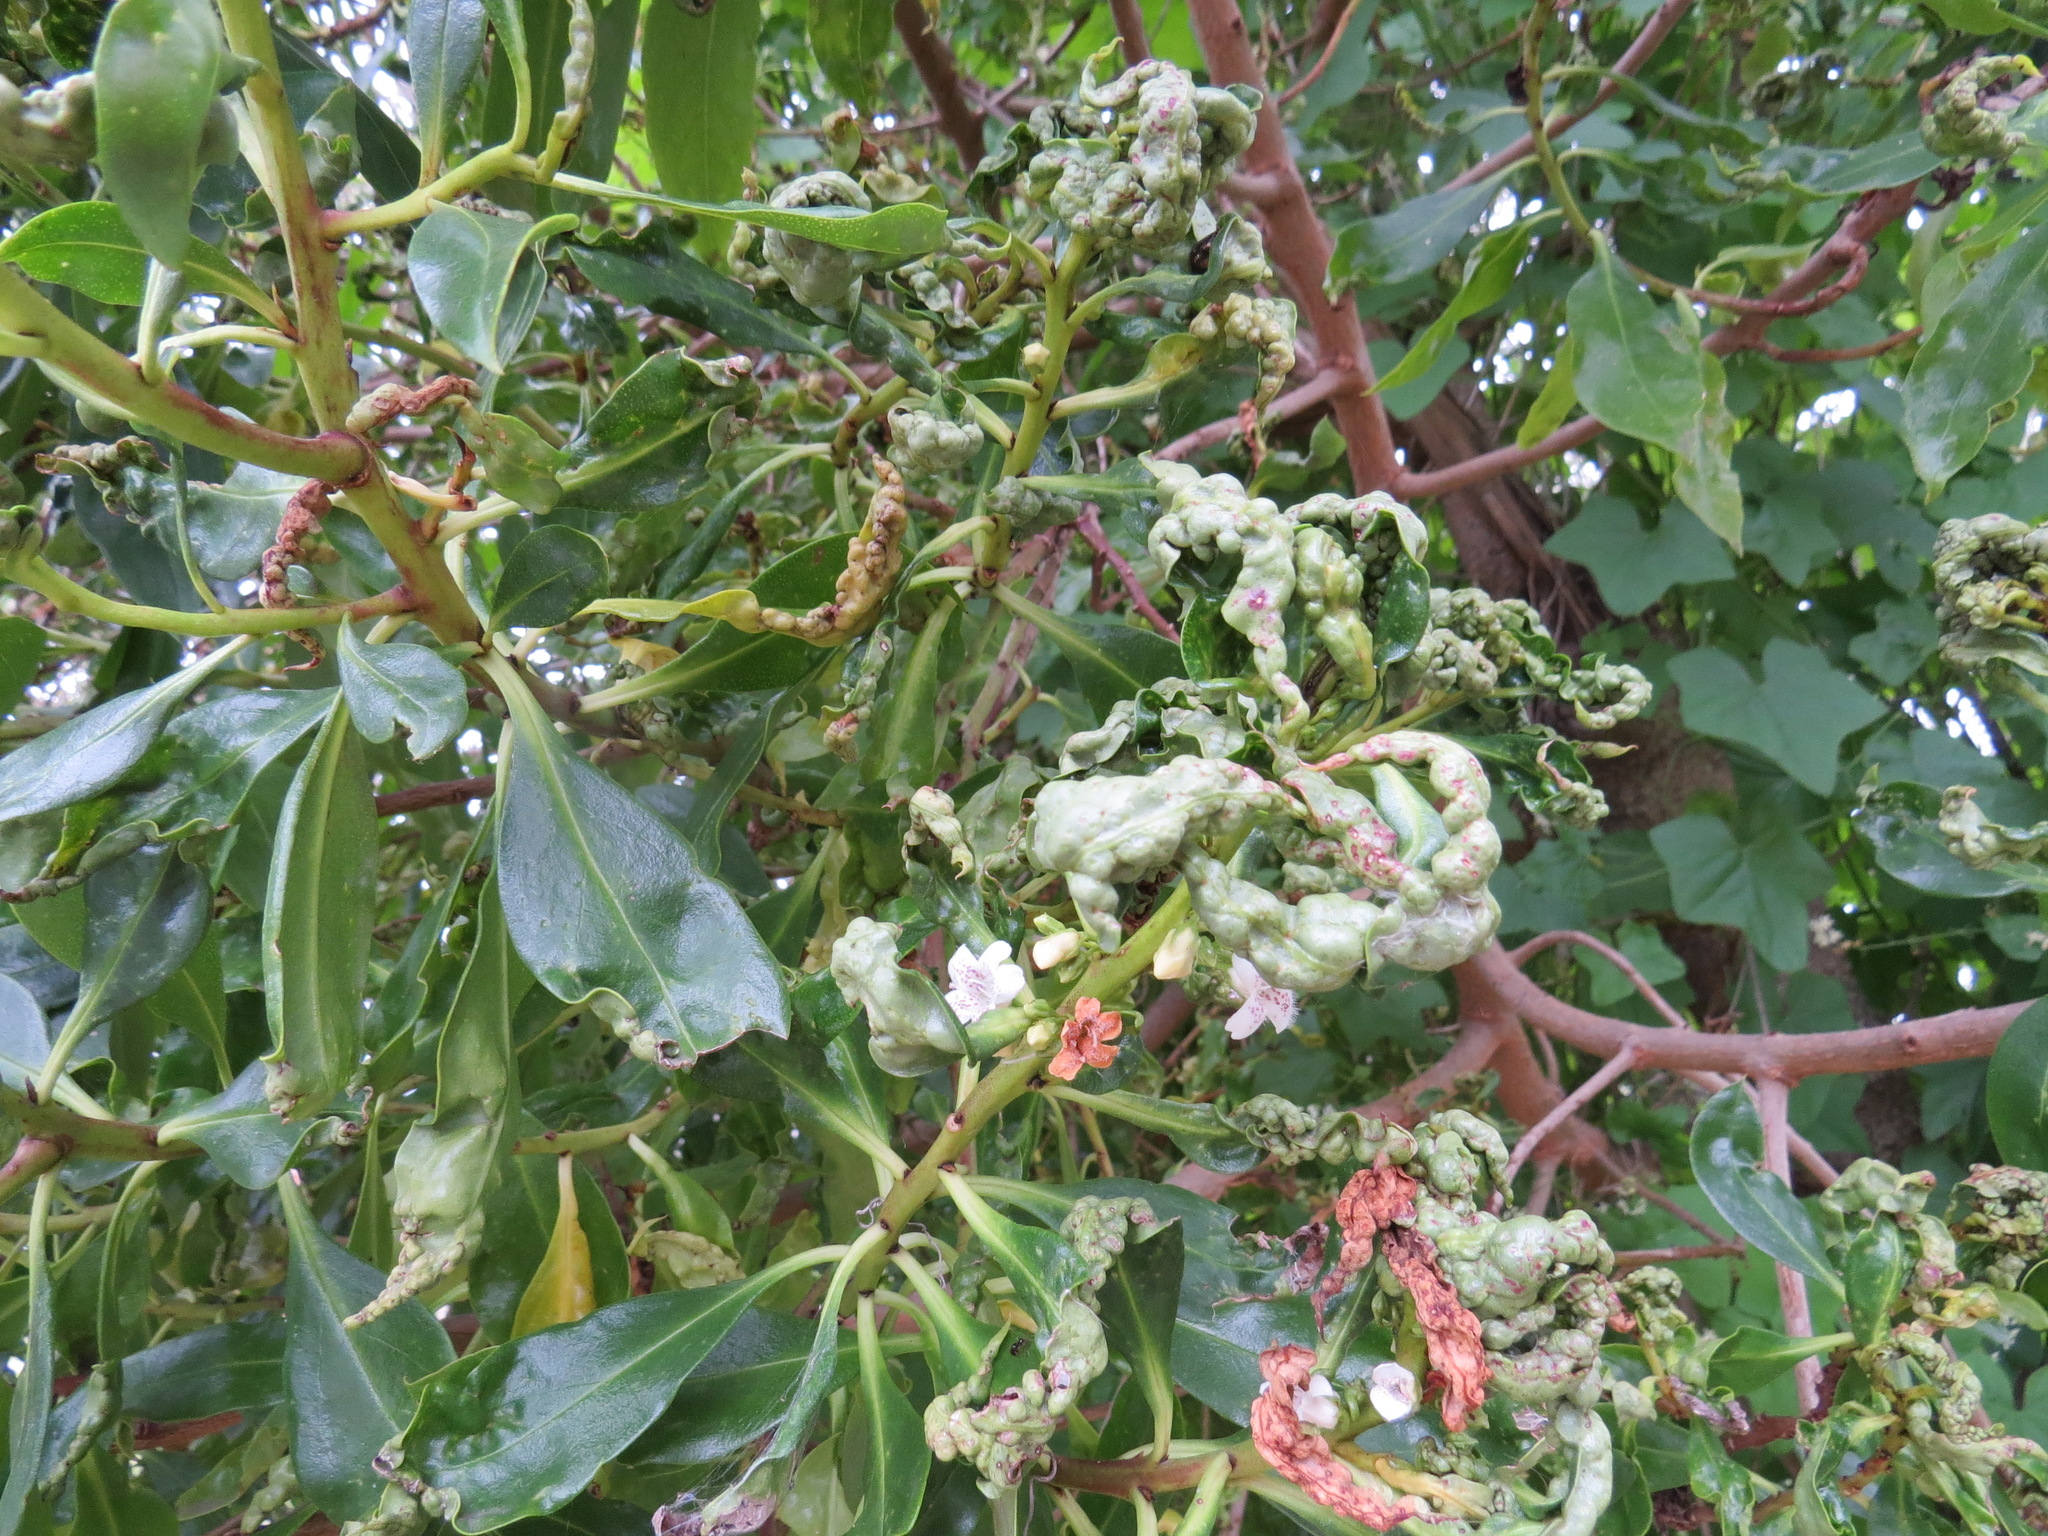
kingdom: Animalia
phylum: Chordata
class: Aves
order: Passeriformes
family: Parulidae
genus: Cardellina
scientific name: Cardellina pusilla
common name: Wilson's warbler
